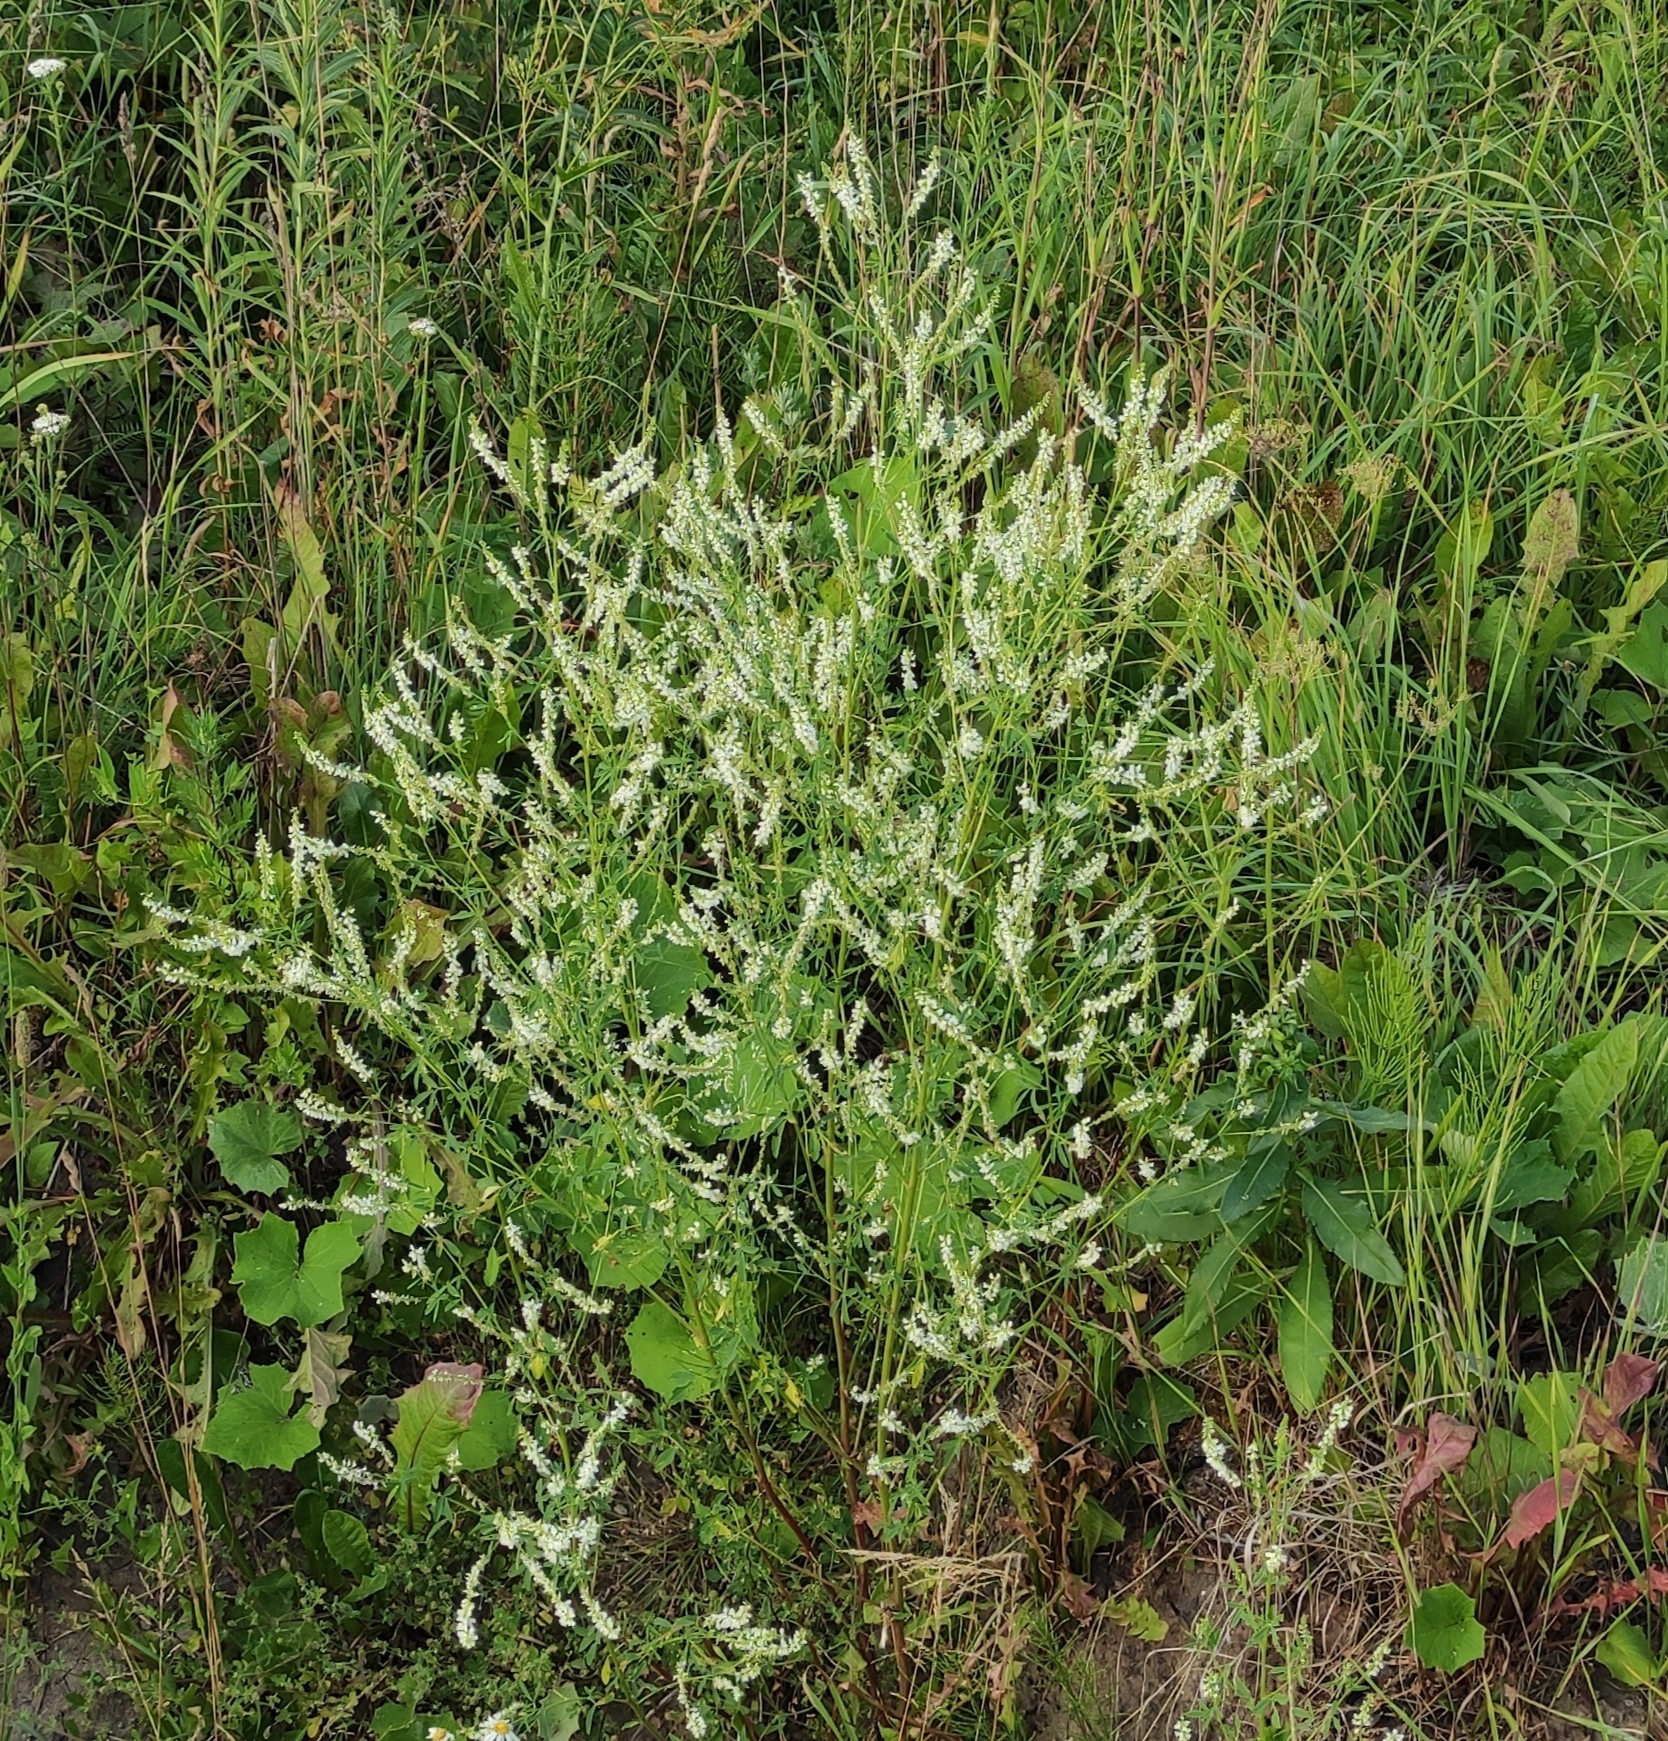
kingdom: Plantae
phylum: Tracheophyta
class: Magnoliopsida
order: Fabales
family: Fabaceae
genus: Melilotus
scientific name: Melilotus albus
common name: White melilot
